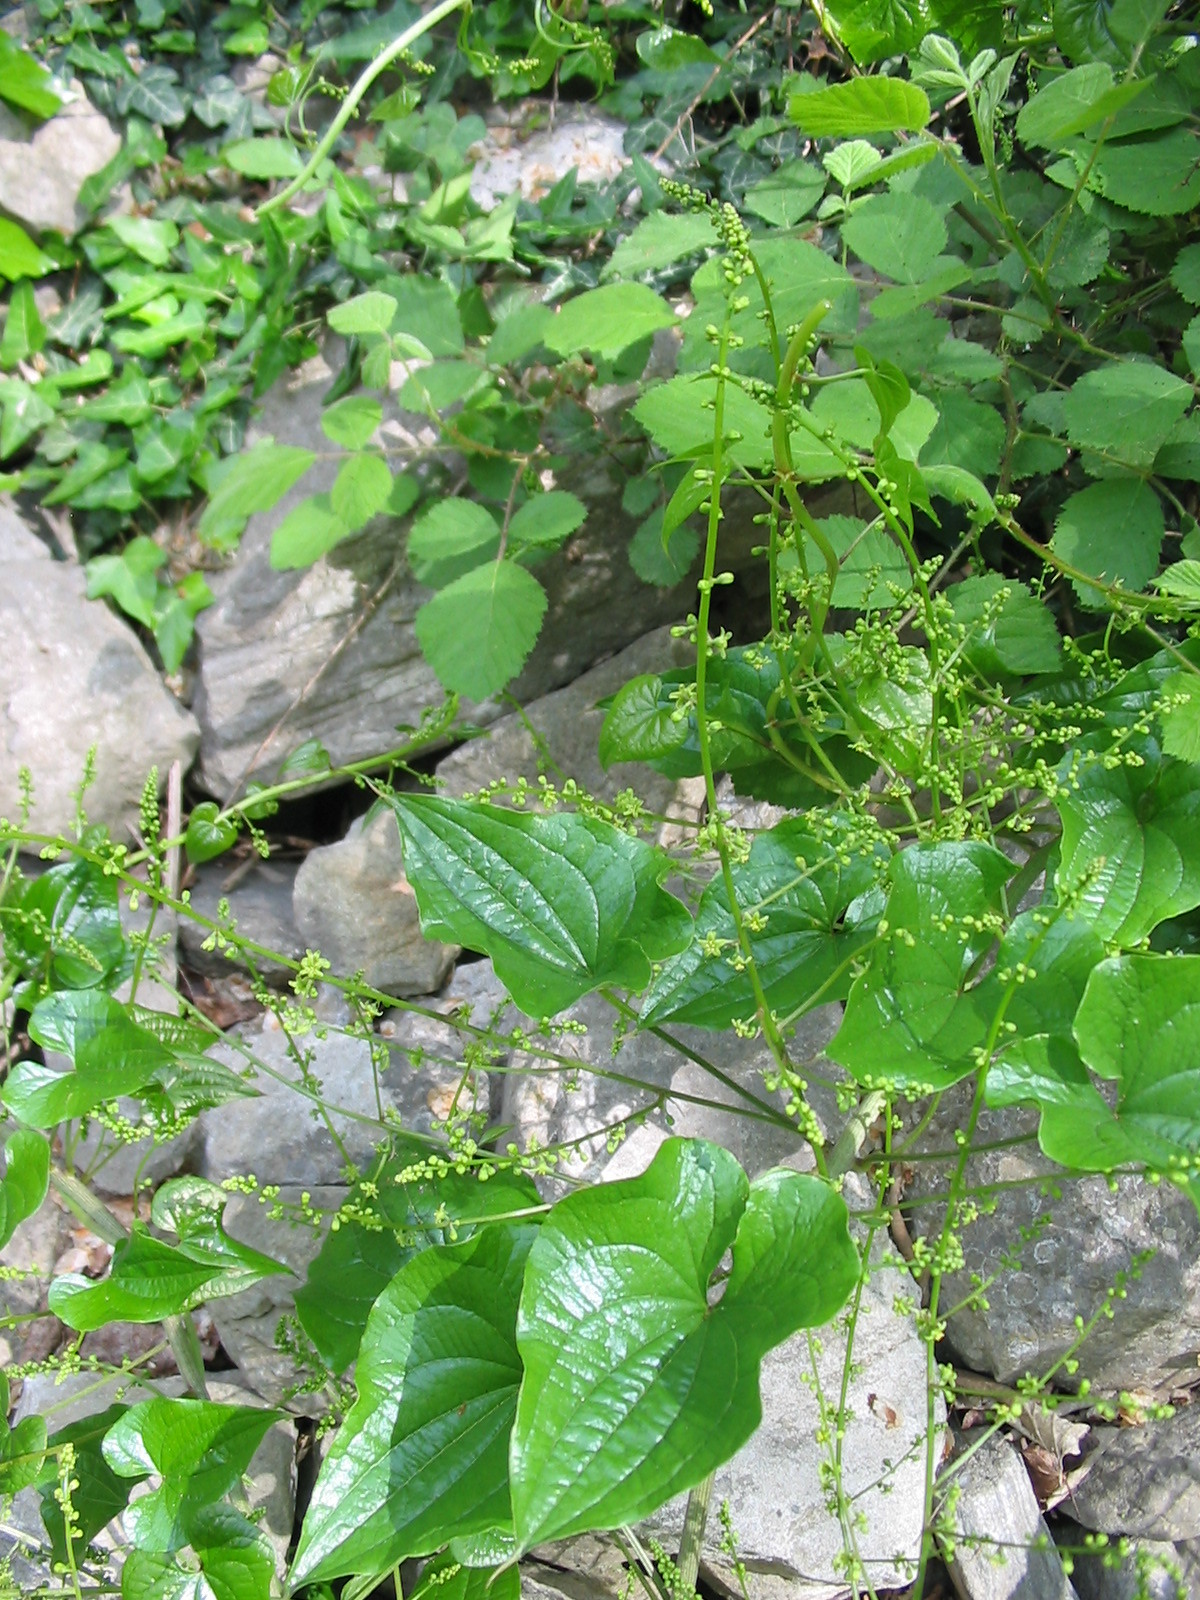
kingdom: Plantae
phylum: Tracheophyta
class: Liliopsida
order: Dioscoreales
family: Dioscoreaceae
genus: Dioscorea
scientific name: Dioscorea communis
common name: Black-bindweed
